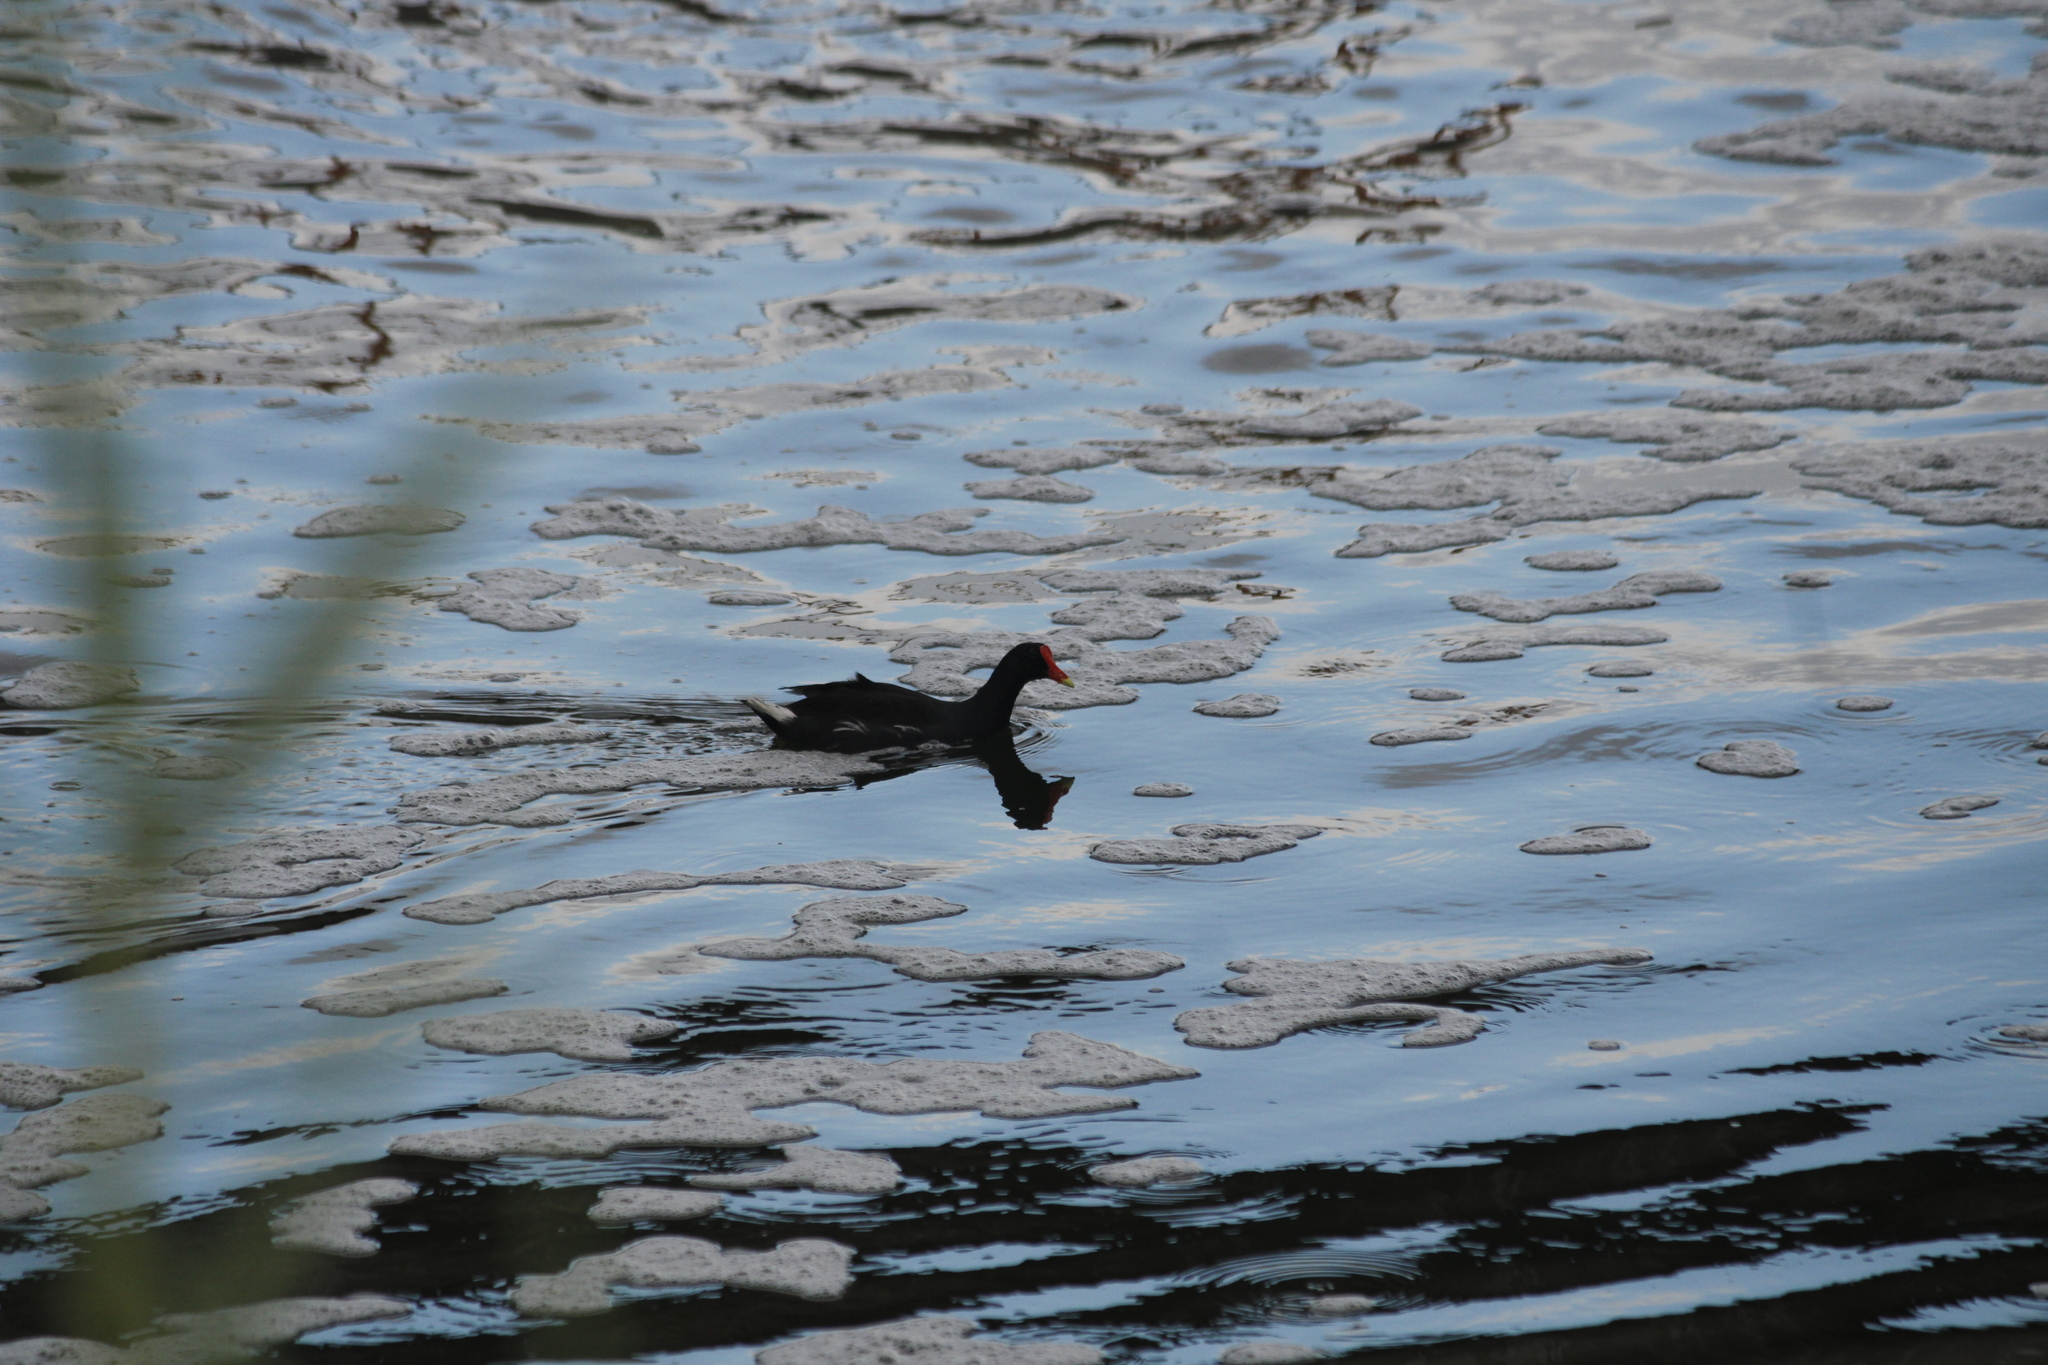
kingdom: Animalia
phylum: Chordata
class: Aves
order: Gruiformes
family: Rallidae
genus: Gallinula
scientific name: Gallinula chloropus
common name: Common moorhen
